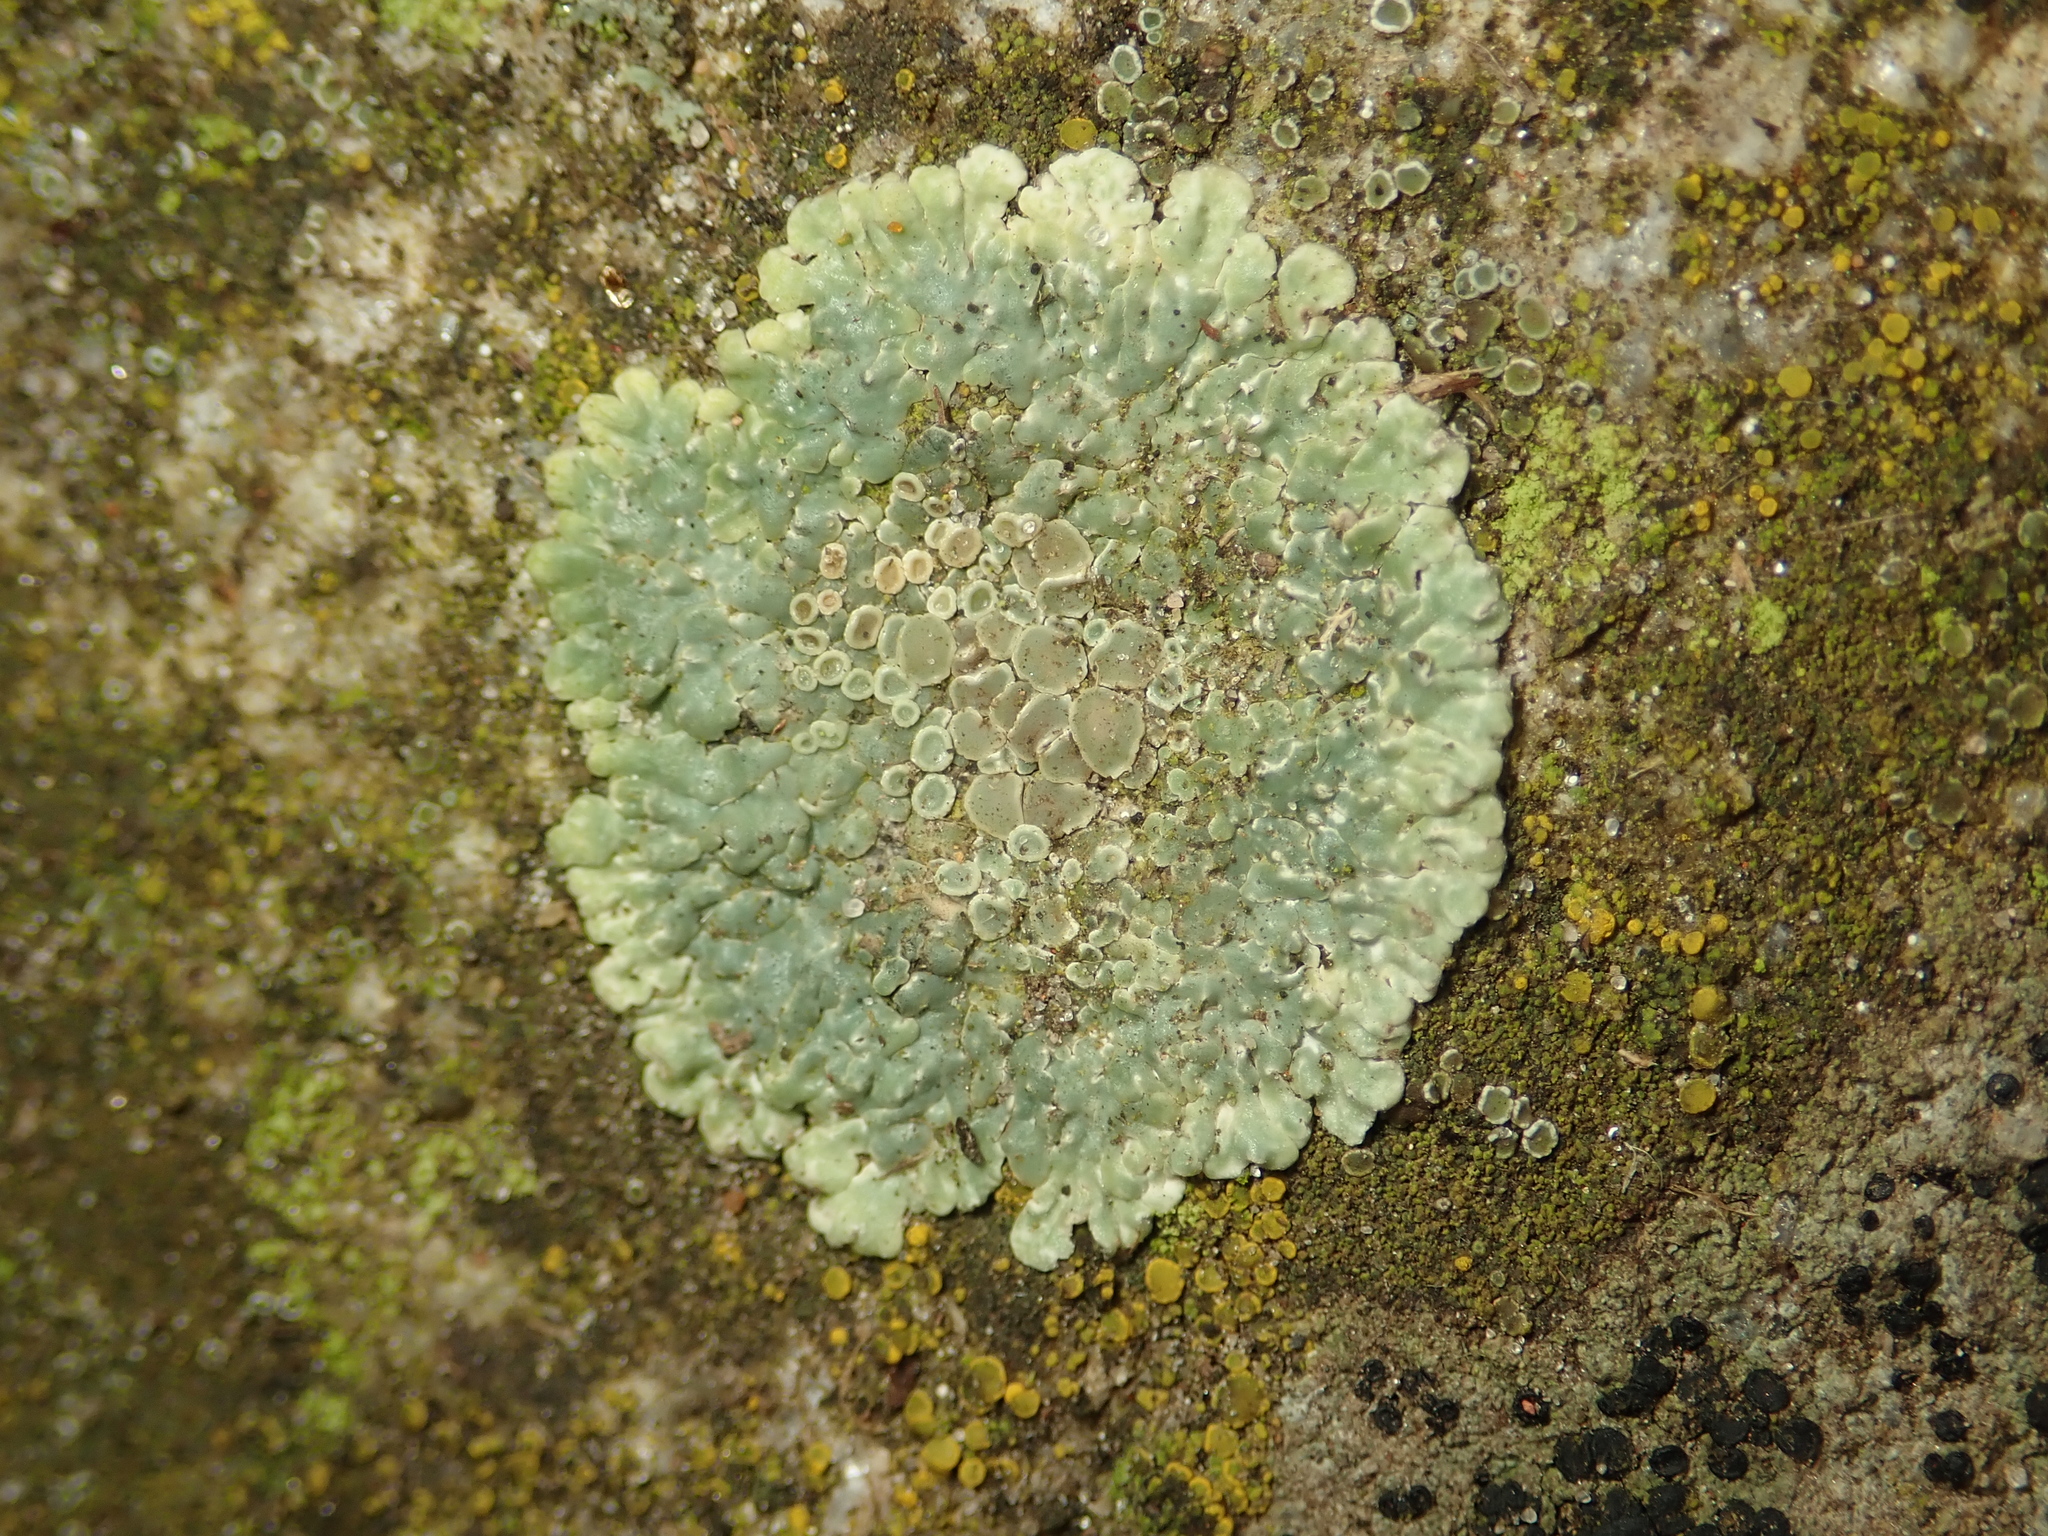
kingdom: Fungi
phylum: Ascomycota
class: Lecanoromycetes
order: Lecanorales
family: Lecanoraceae
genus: Protoparmeliopsis
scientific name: Protoparmeliopsis muralis
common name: Stonewall rim lichen
